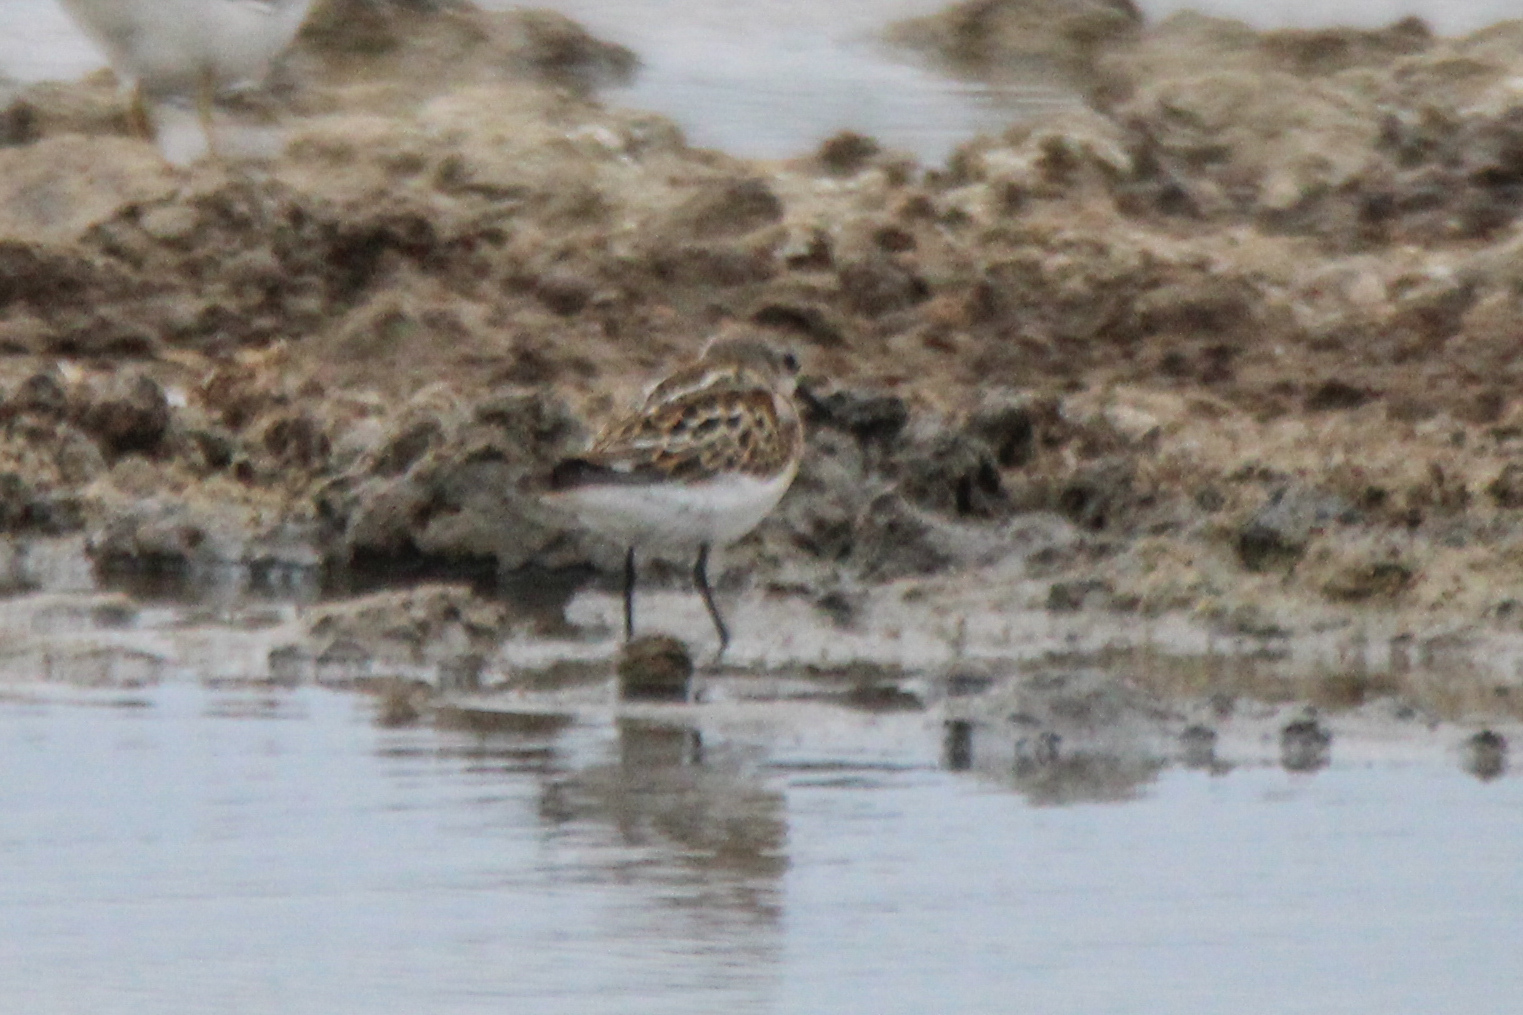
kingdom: Animalia
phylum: Chordata
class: Aves
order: Charadriiformes
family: Scolopacidae
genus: Calidris
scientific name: Calidris minuta
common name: Little stint
